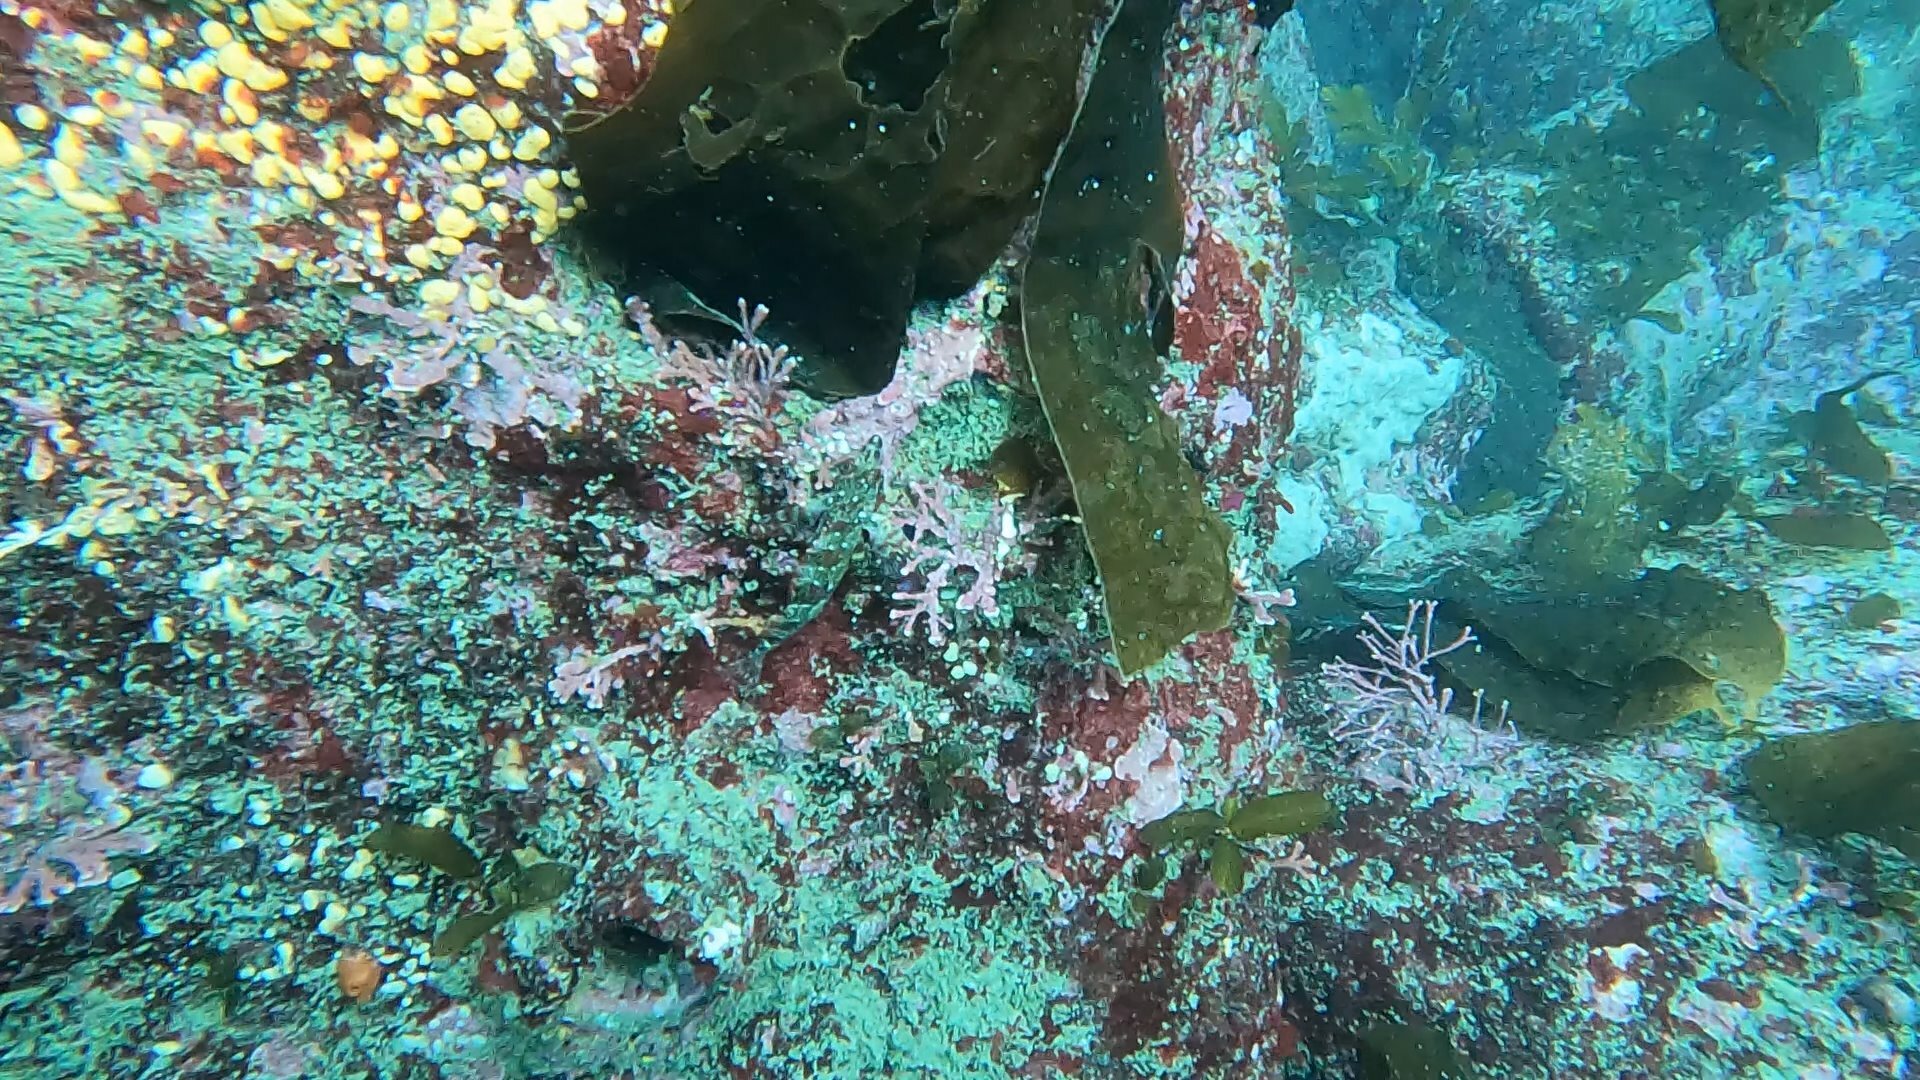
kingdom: Animalia
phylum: Chordata
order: Scorpaeniformes
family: Hexagrammidae
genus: Oxylebius
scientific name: Oxylebius pictus
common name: Painted greenling
